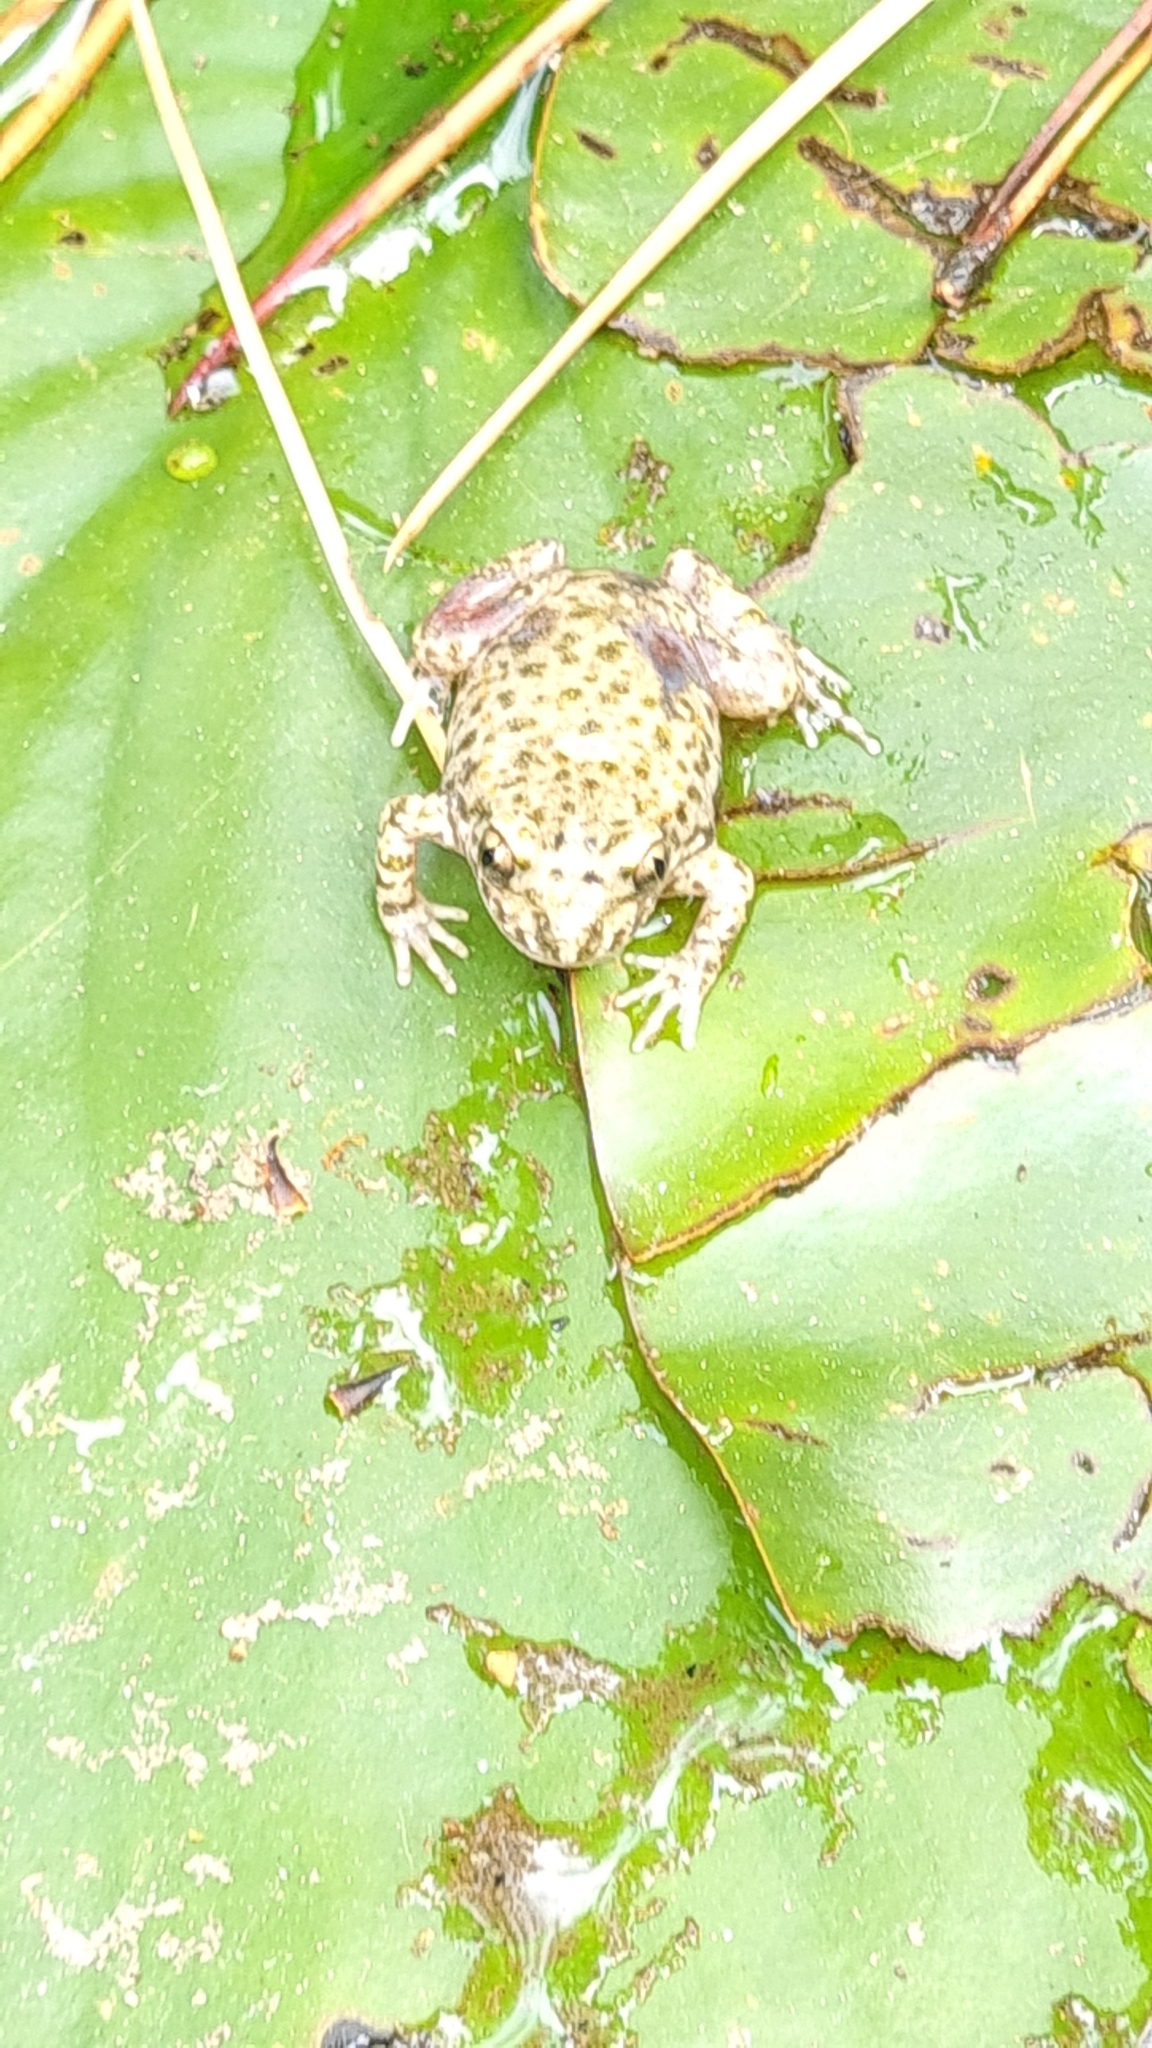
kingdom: Animalia
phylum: Chordata
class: Amphibia
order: Anura
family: Alytidae
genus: Alytes
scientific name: Alytes obstetricans
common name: Midwife toad
